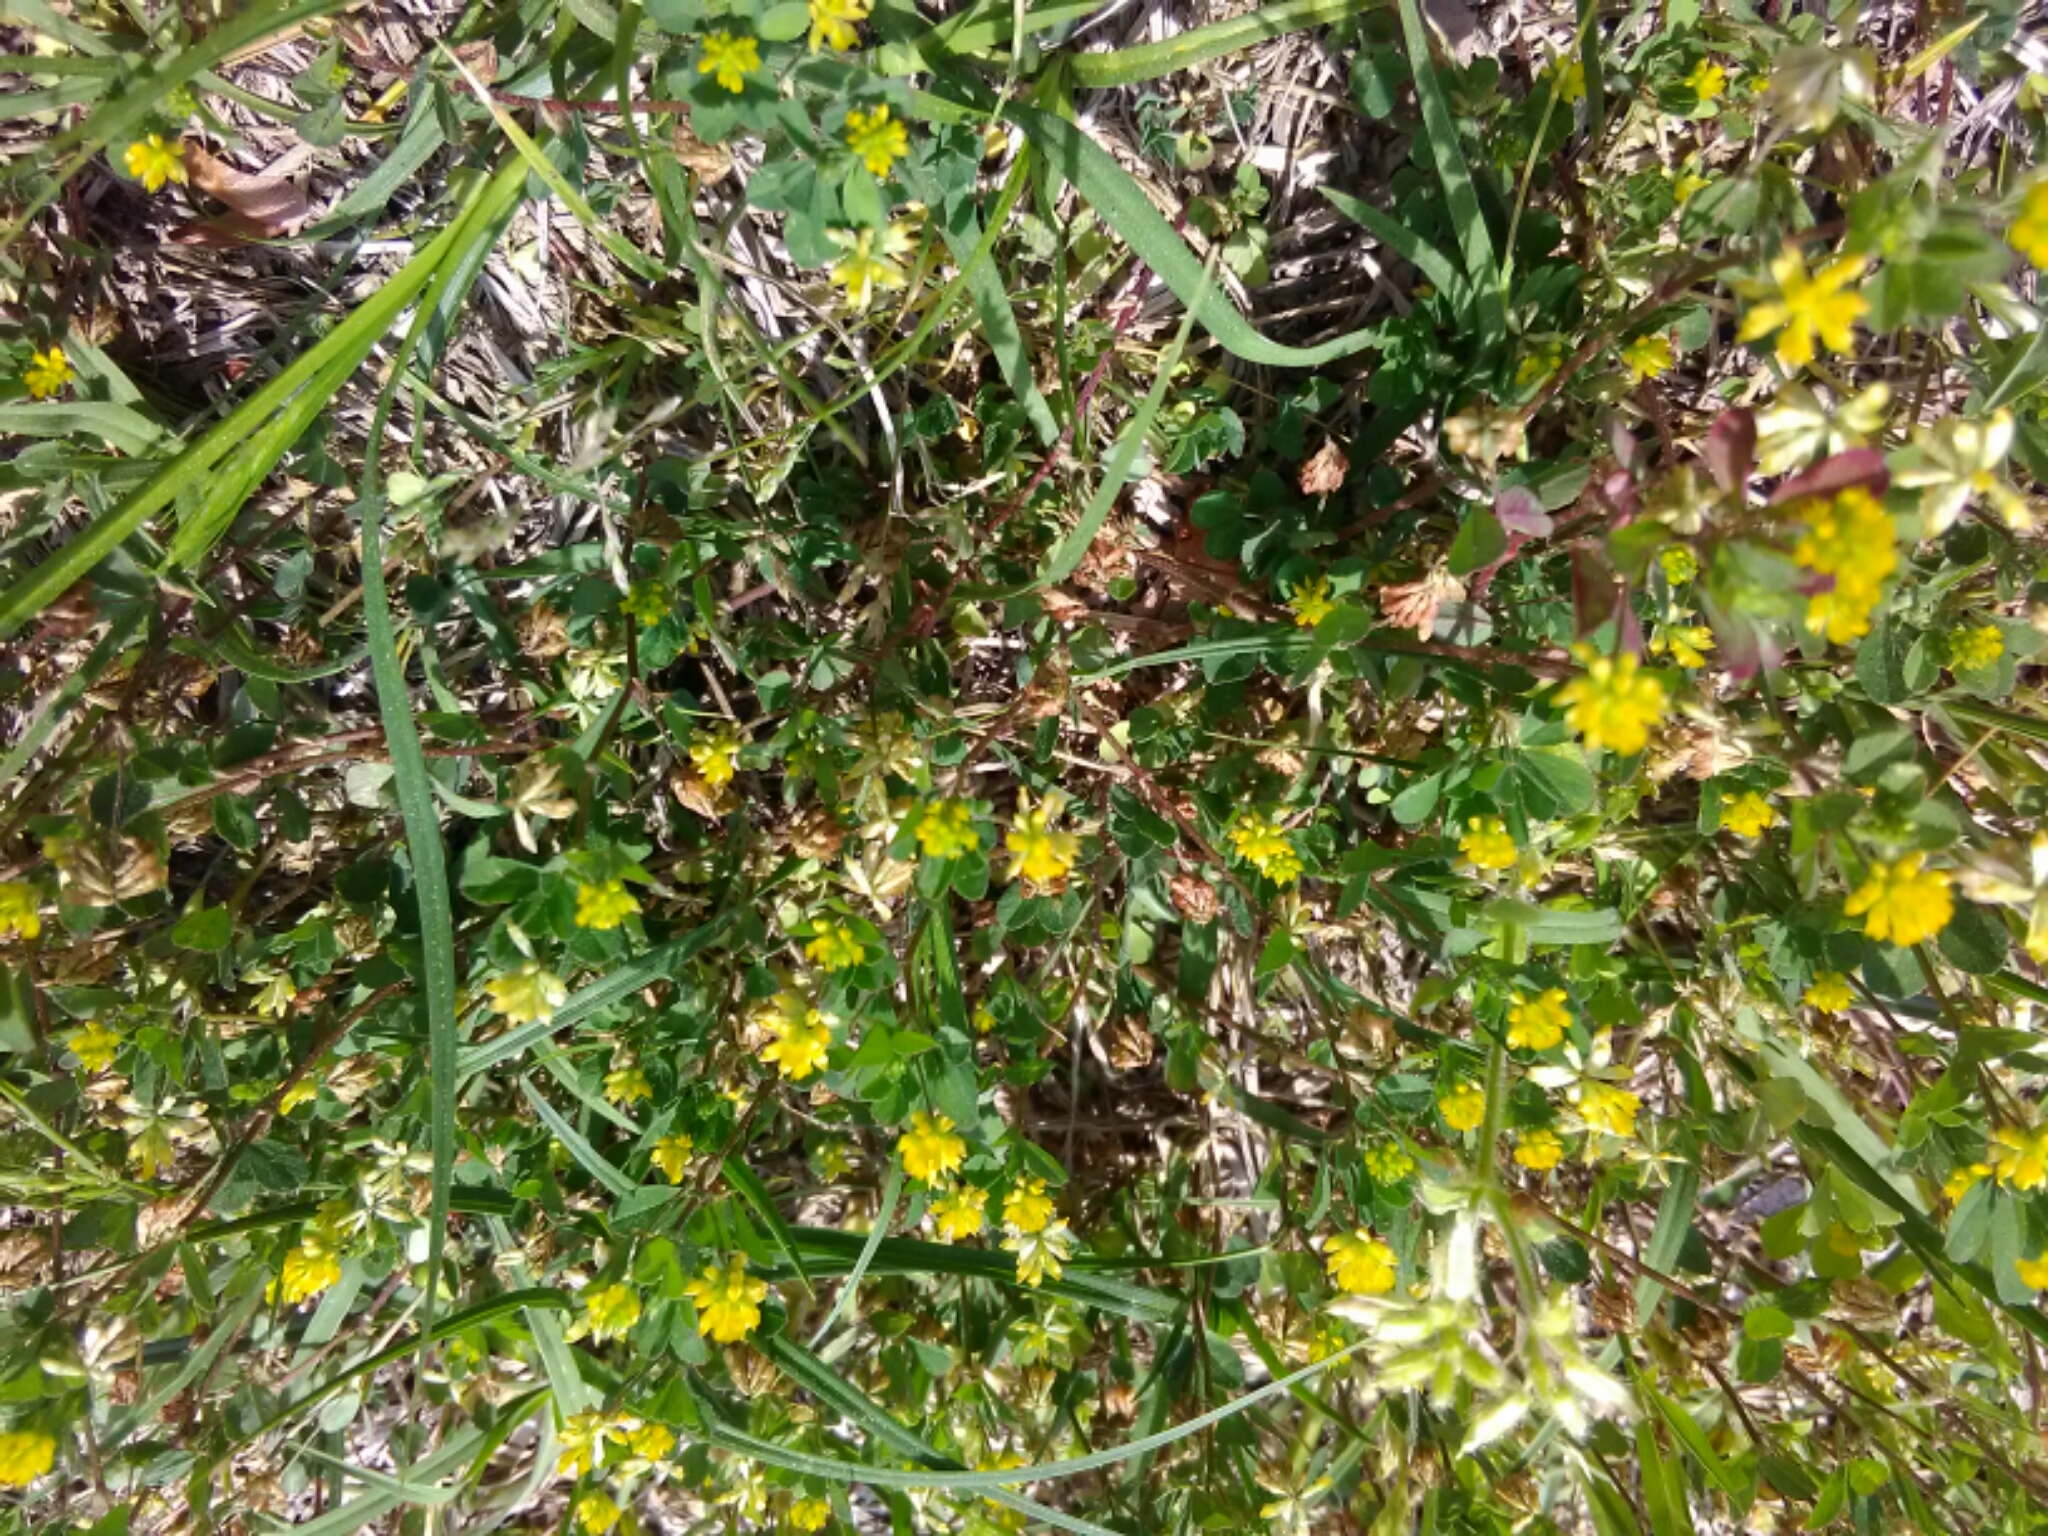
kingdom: Plantae
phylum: Tracheophyta
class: Magnoliopsida
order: Fabales
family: Fabaceae
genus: Trifolium
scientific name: Trifolium dubium
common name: Suckling clover
